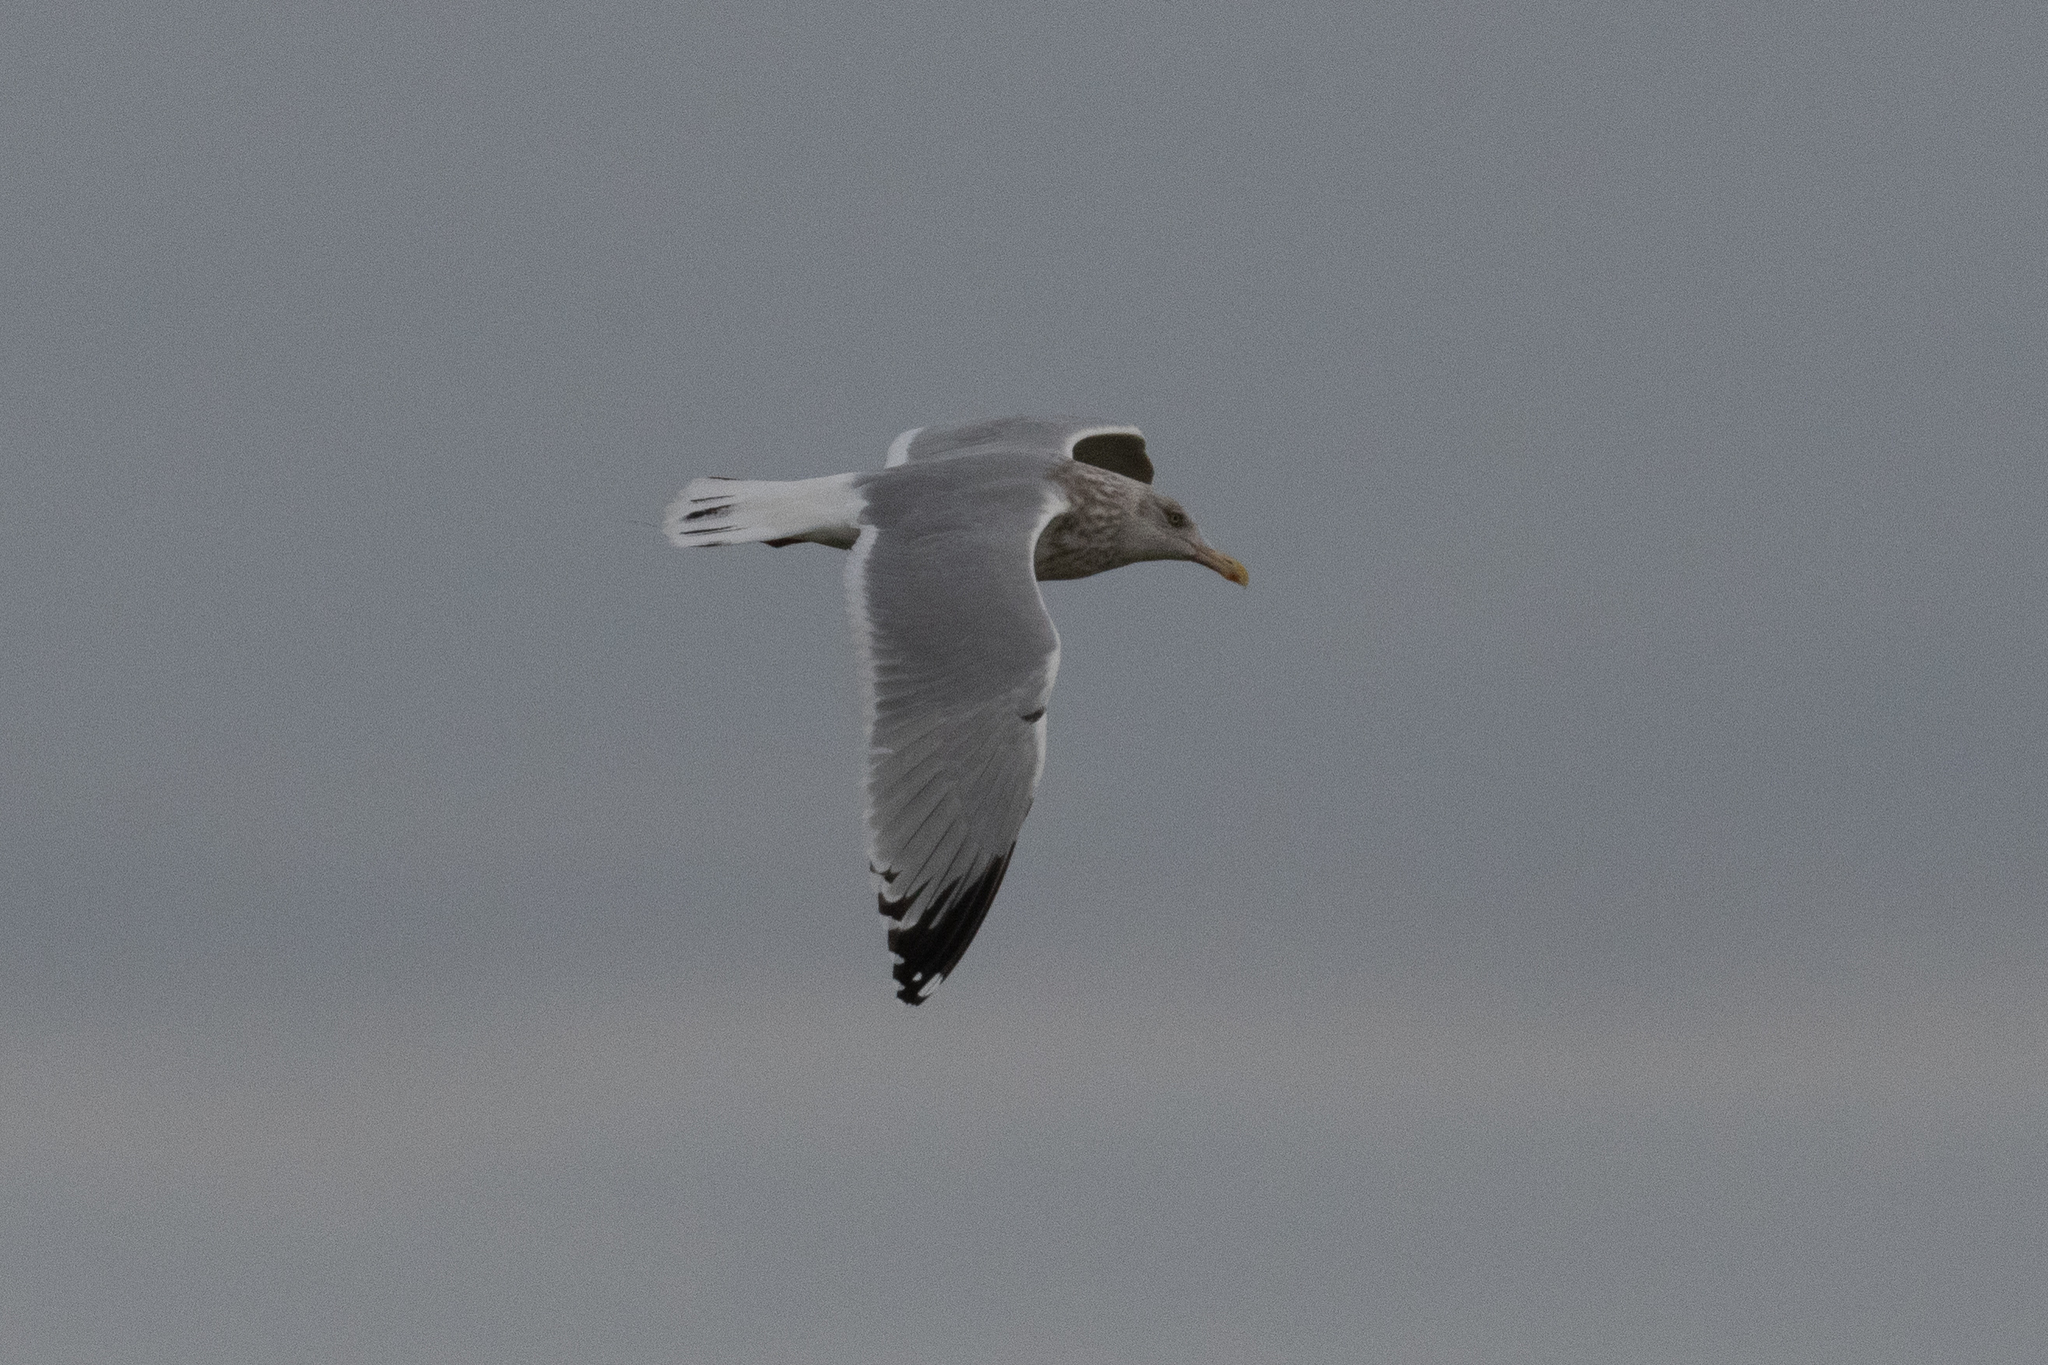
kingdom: Animalia
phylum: Chordata
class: Aves
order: Charadriiformes
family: Laridae
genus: Larus
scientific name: Larus argentatus
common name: Herring gull
